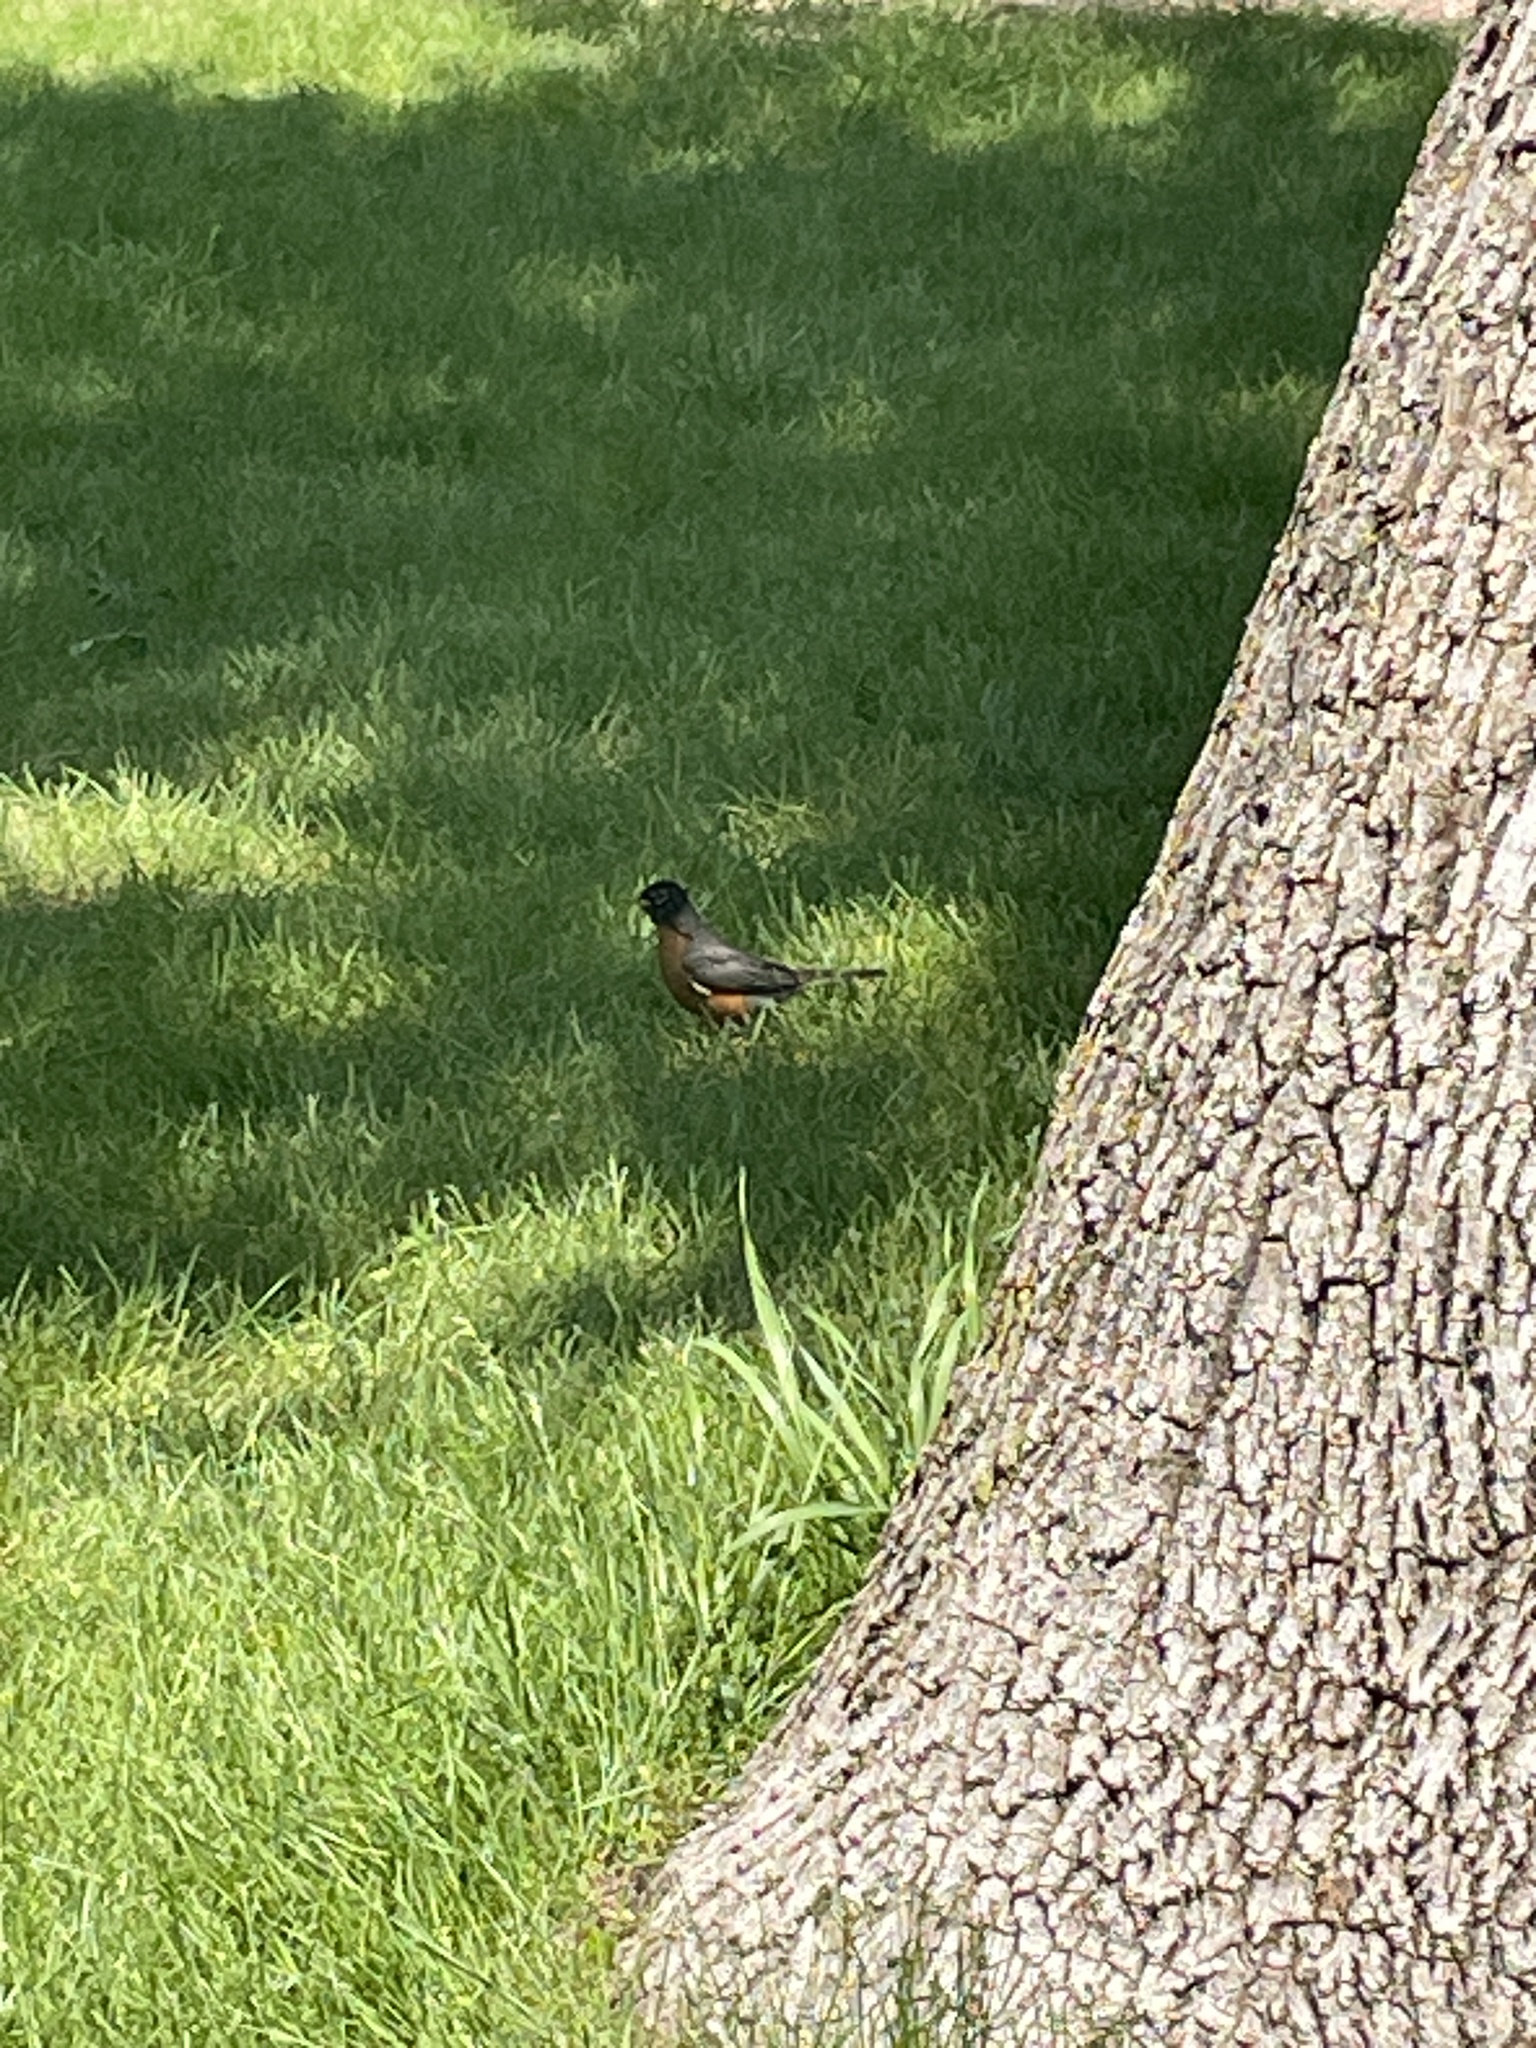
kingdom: Animalia
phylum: Chordata
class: Aves
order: Passeriformes
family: Turdidae
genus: Turdus
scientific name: Turdus migratorius
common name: American robin
